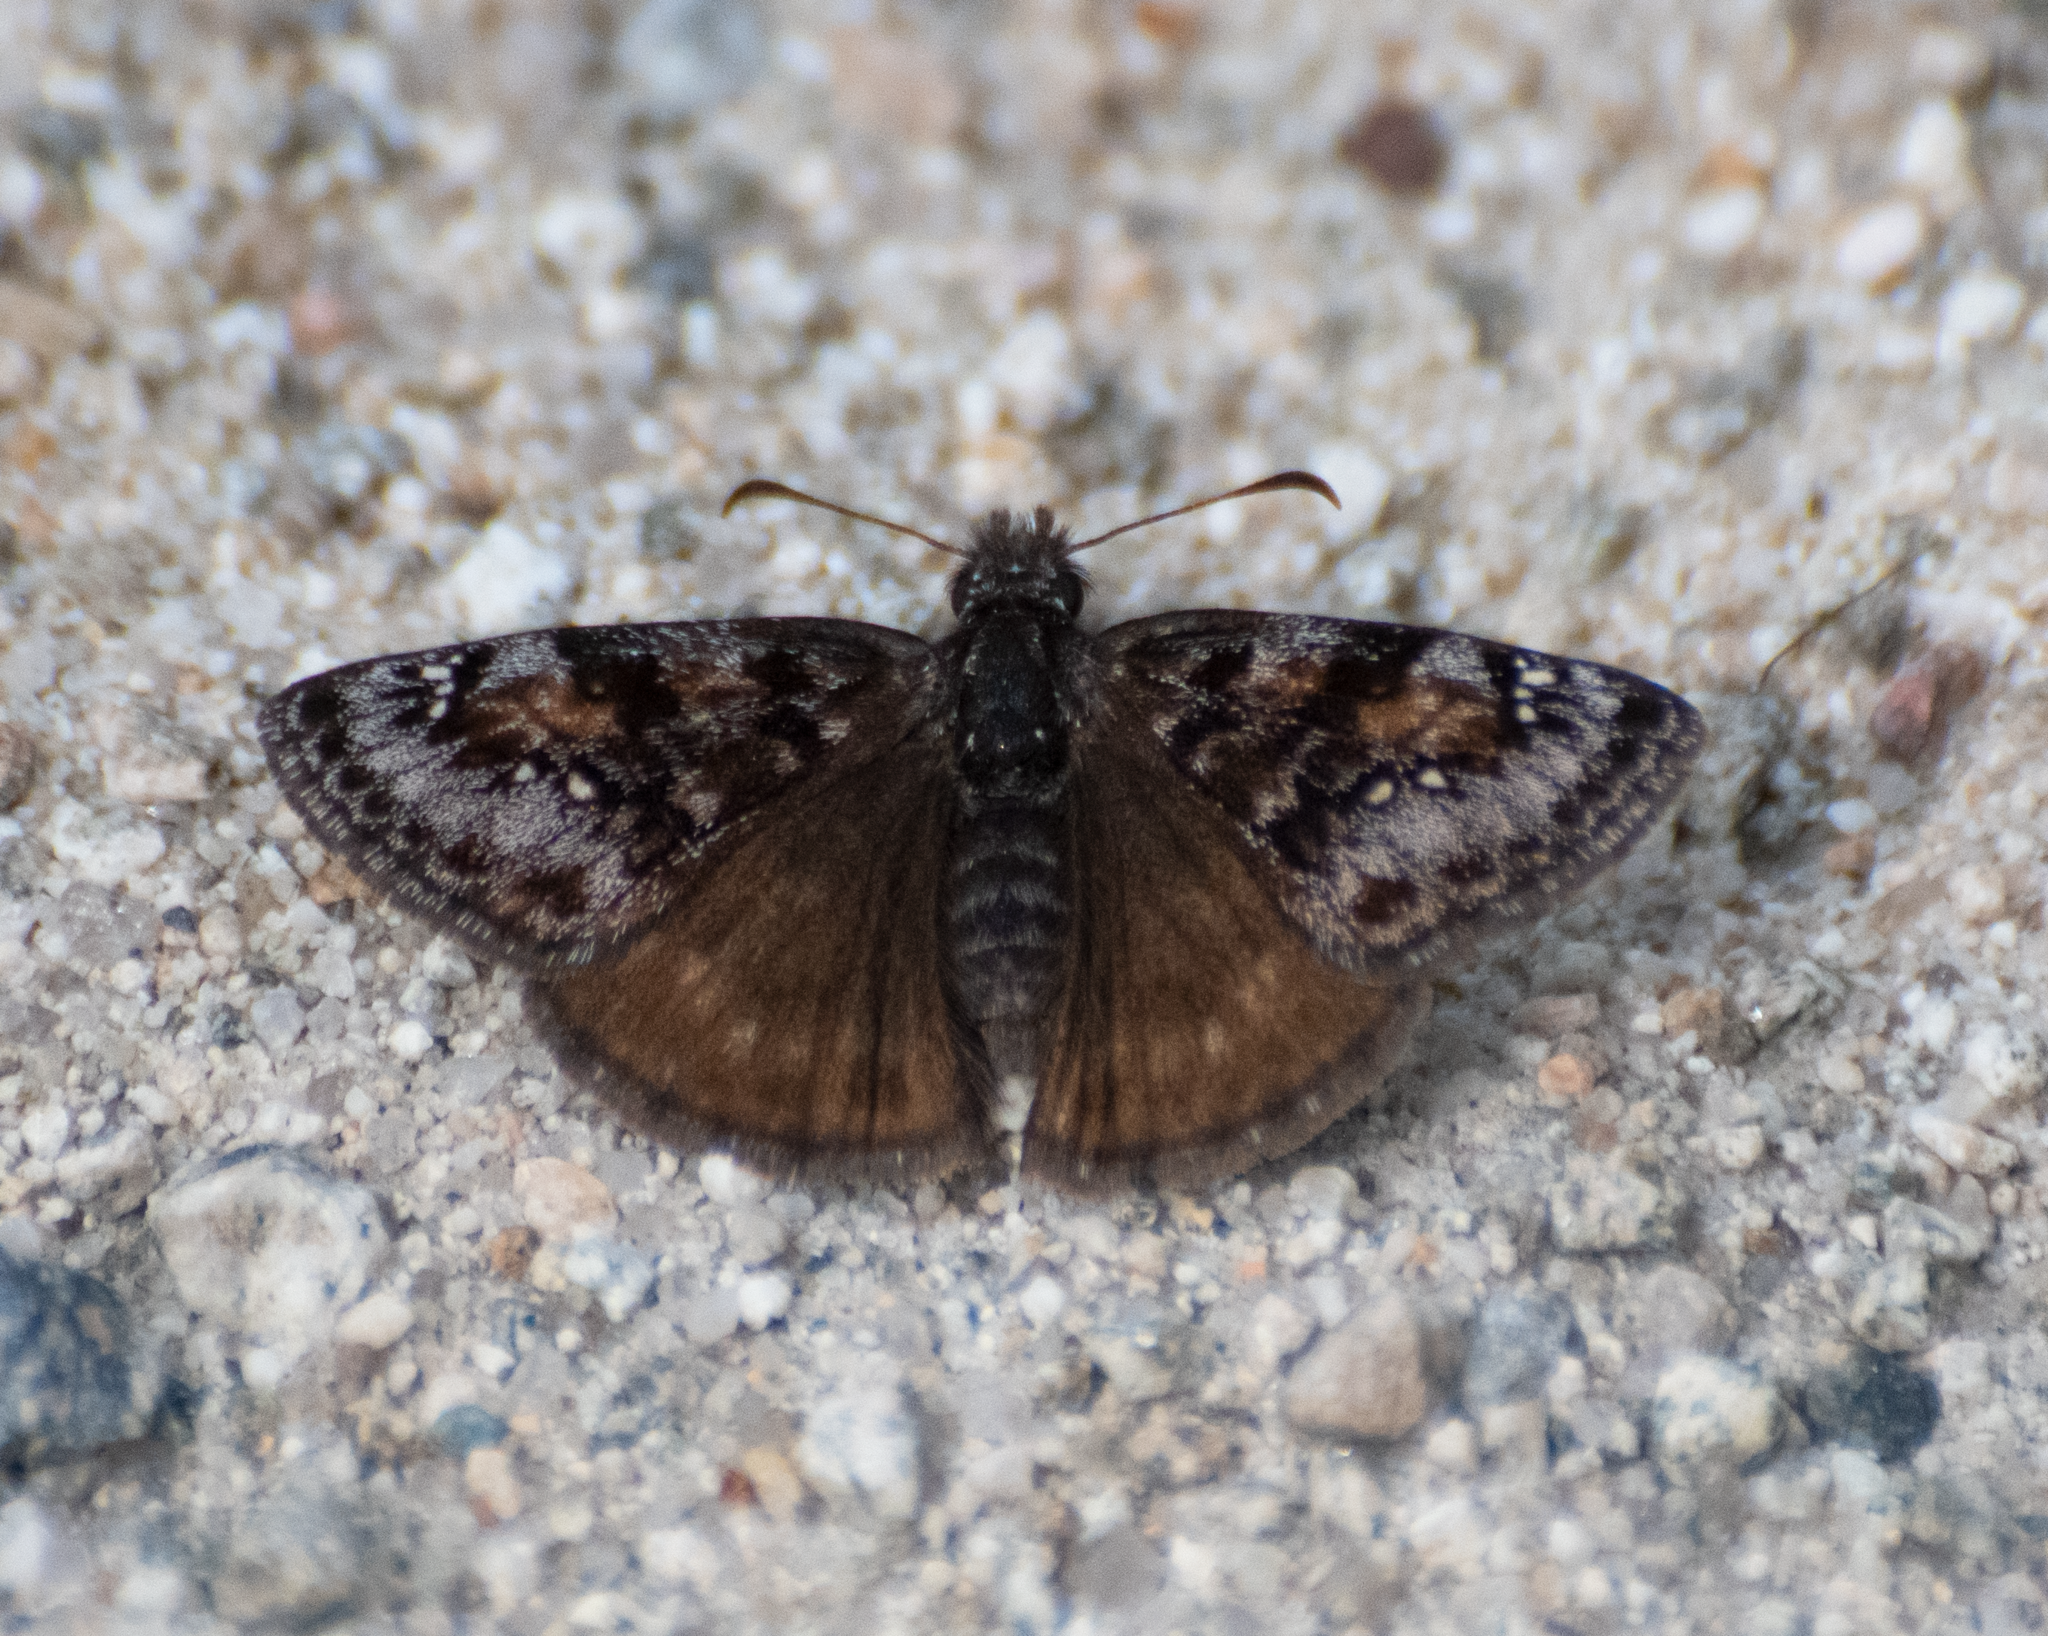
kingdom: Animalia
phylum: Arthropoda
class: Insecta
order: Lepidoptera
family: Hesperiidae
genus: Erynnis
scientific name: Erynnis pacuvius
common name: Pacuvius duskywing
